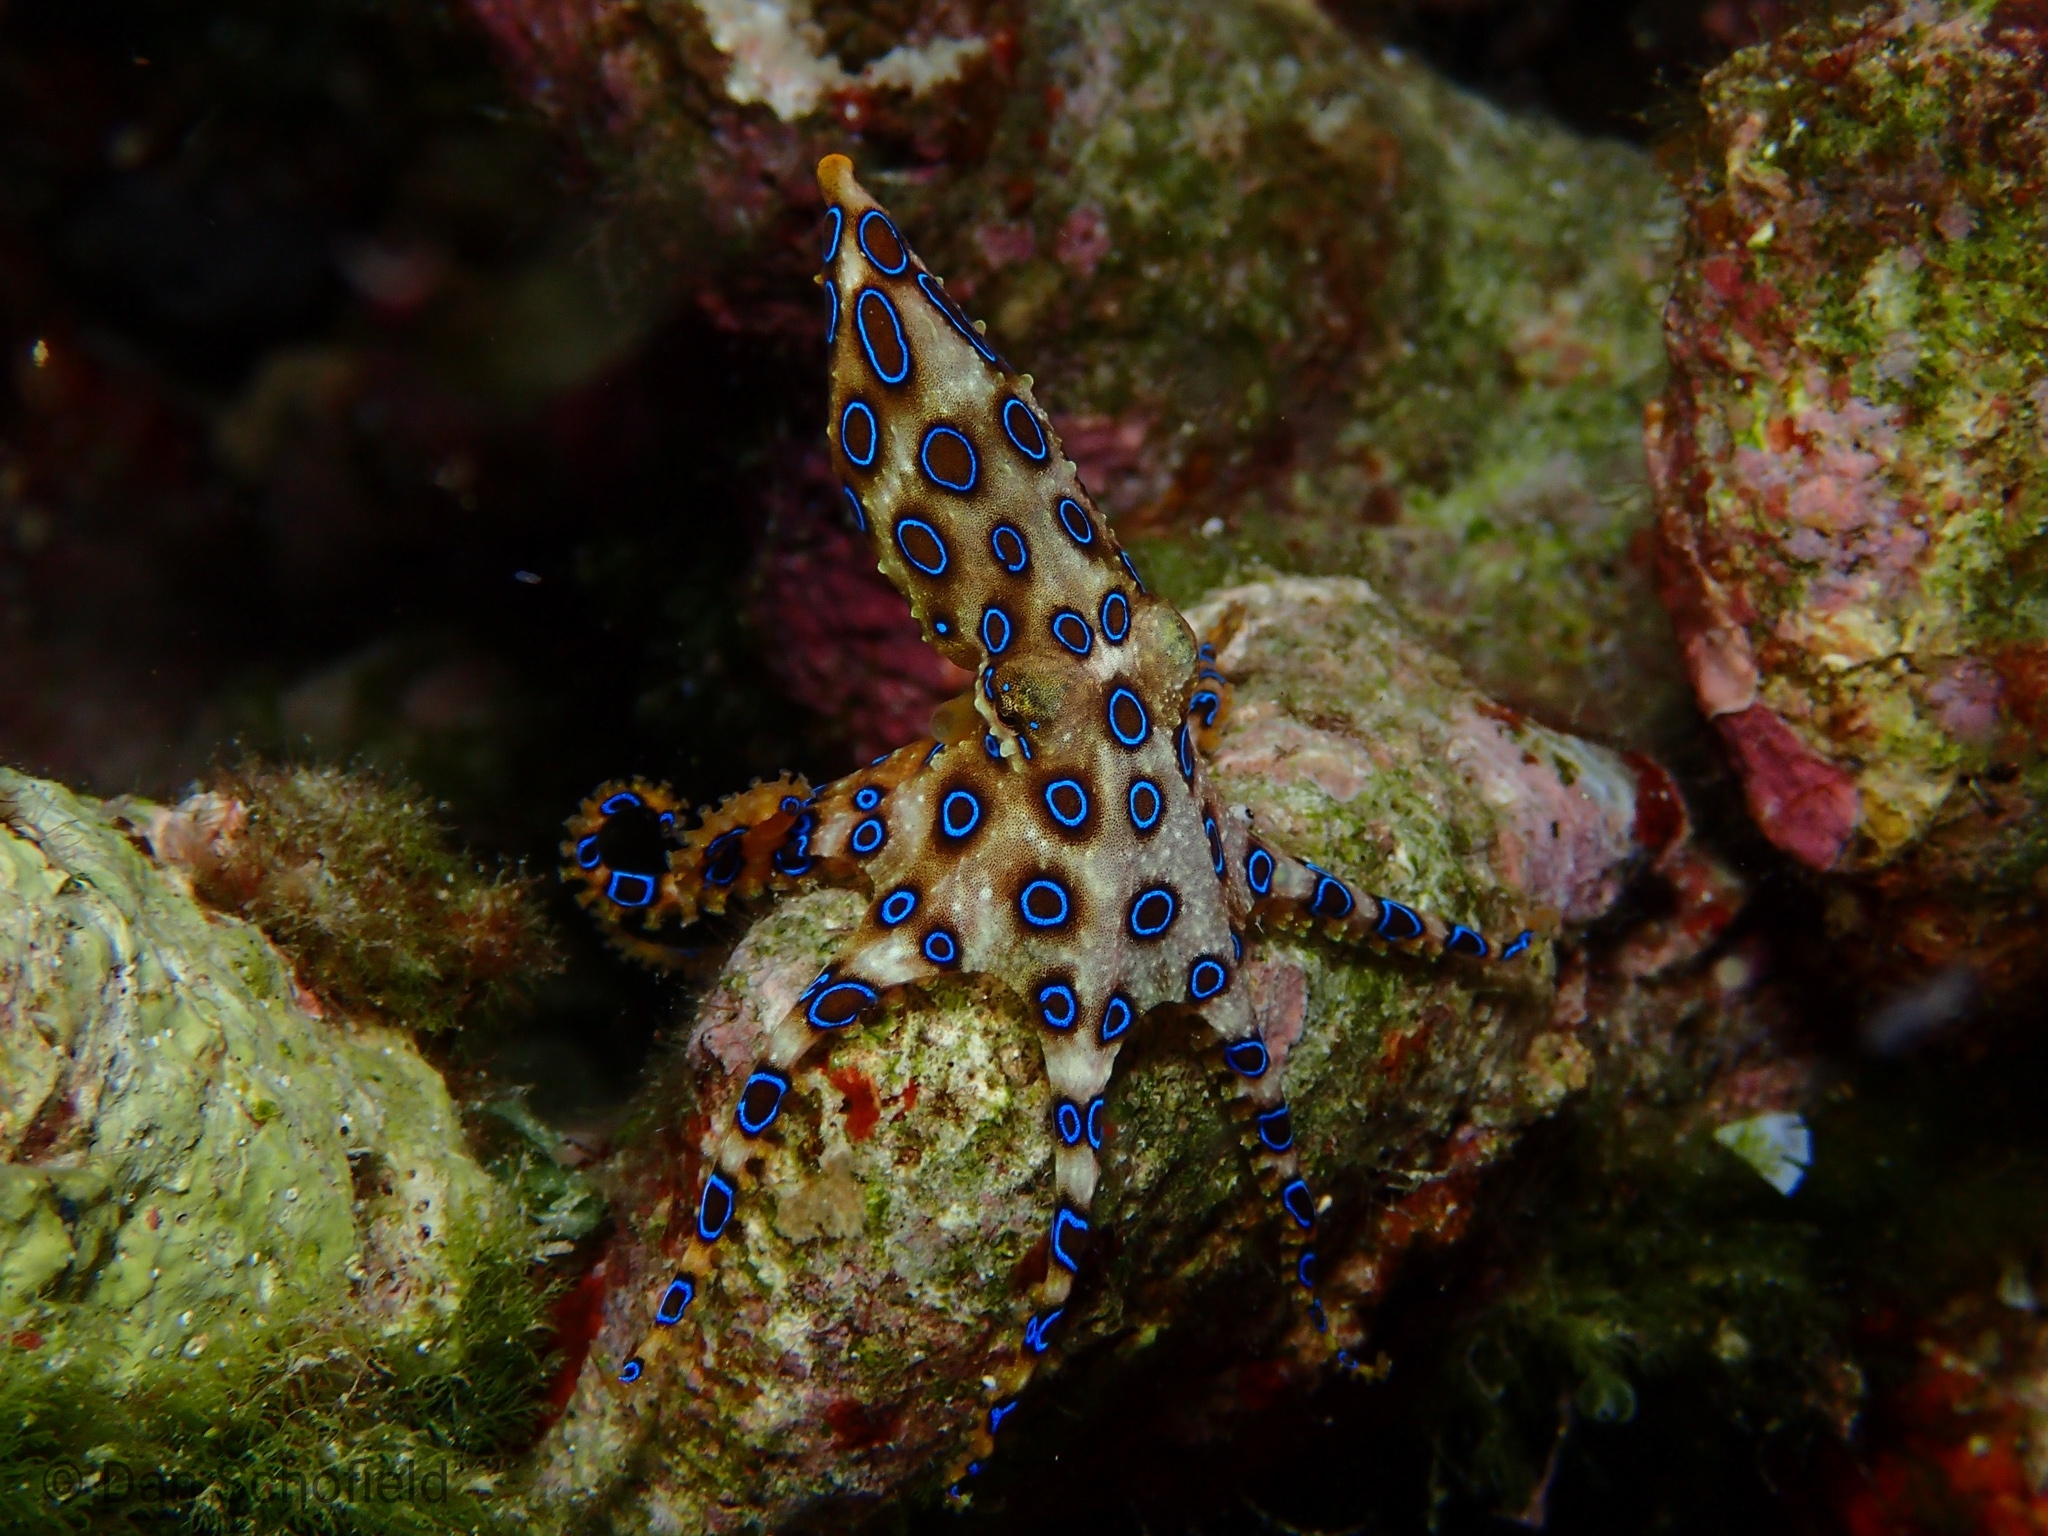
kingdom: Animalia
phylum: Mollusca
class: Cephalopoda
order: Octopoda
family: Octopodidae
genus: Hapalochlaena
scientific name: Hapalochlaena lunulata
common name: Greater blue-ringed octopus
